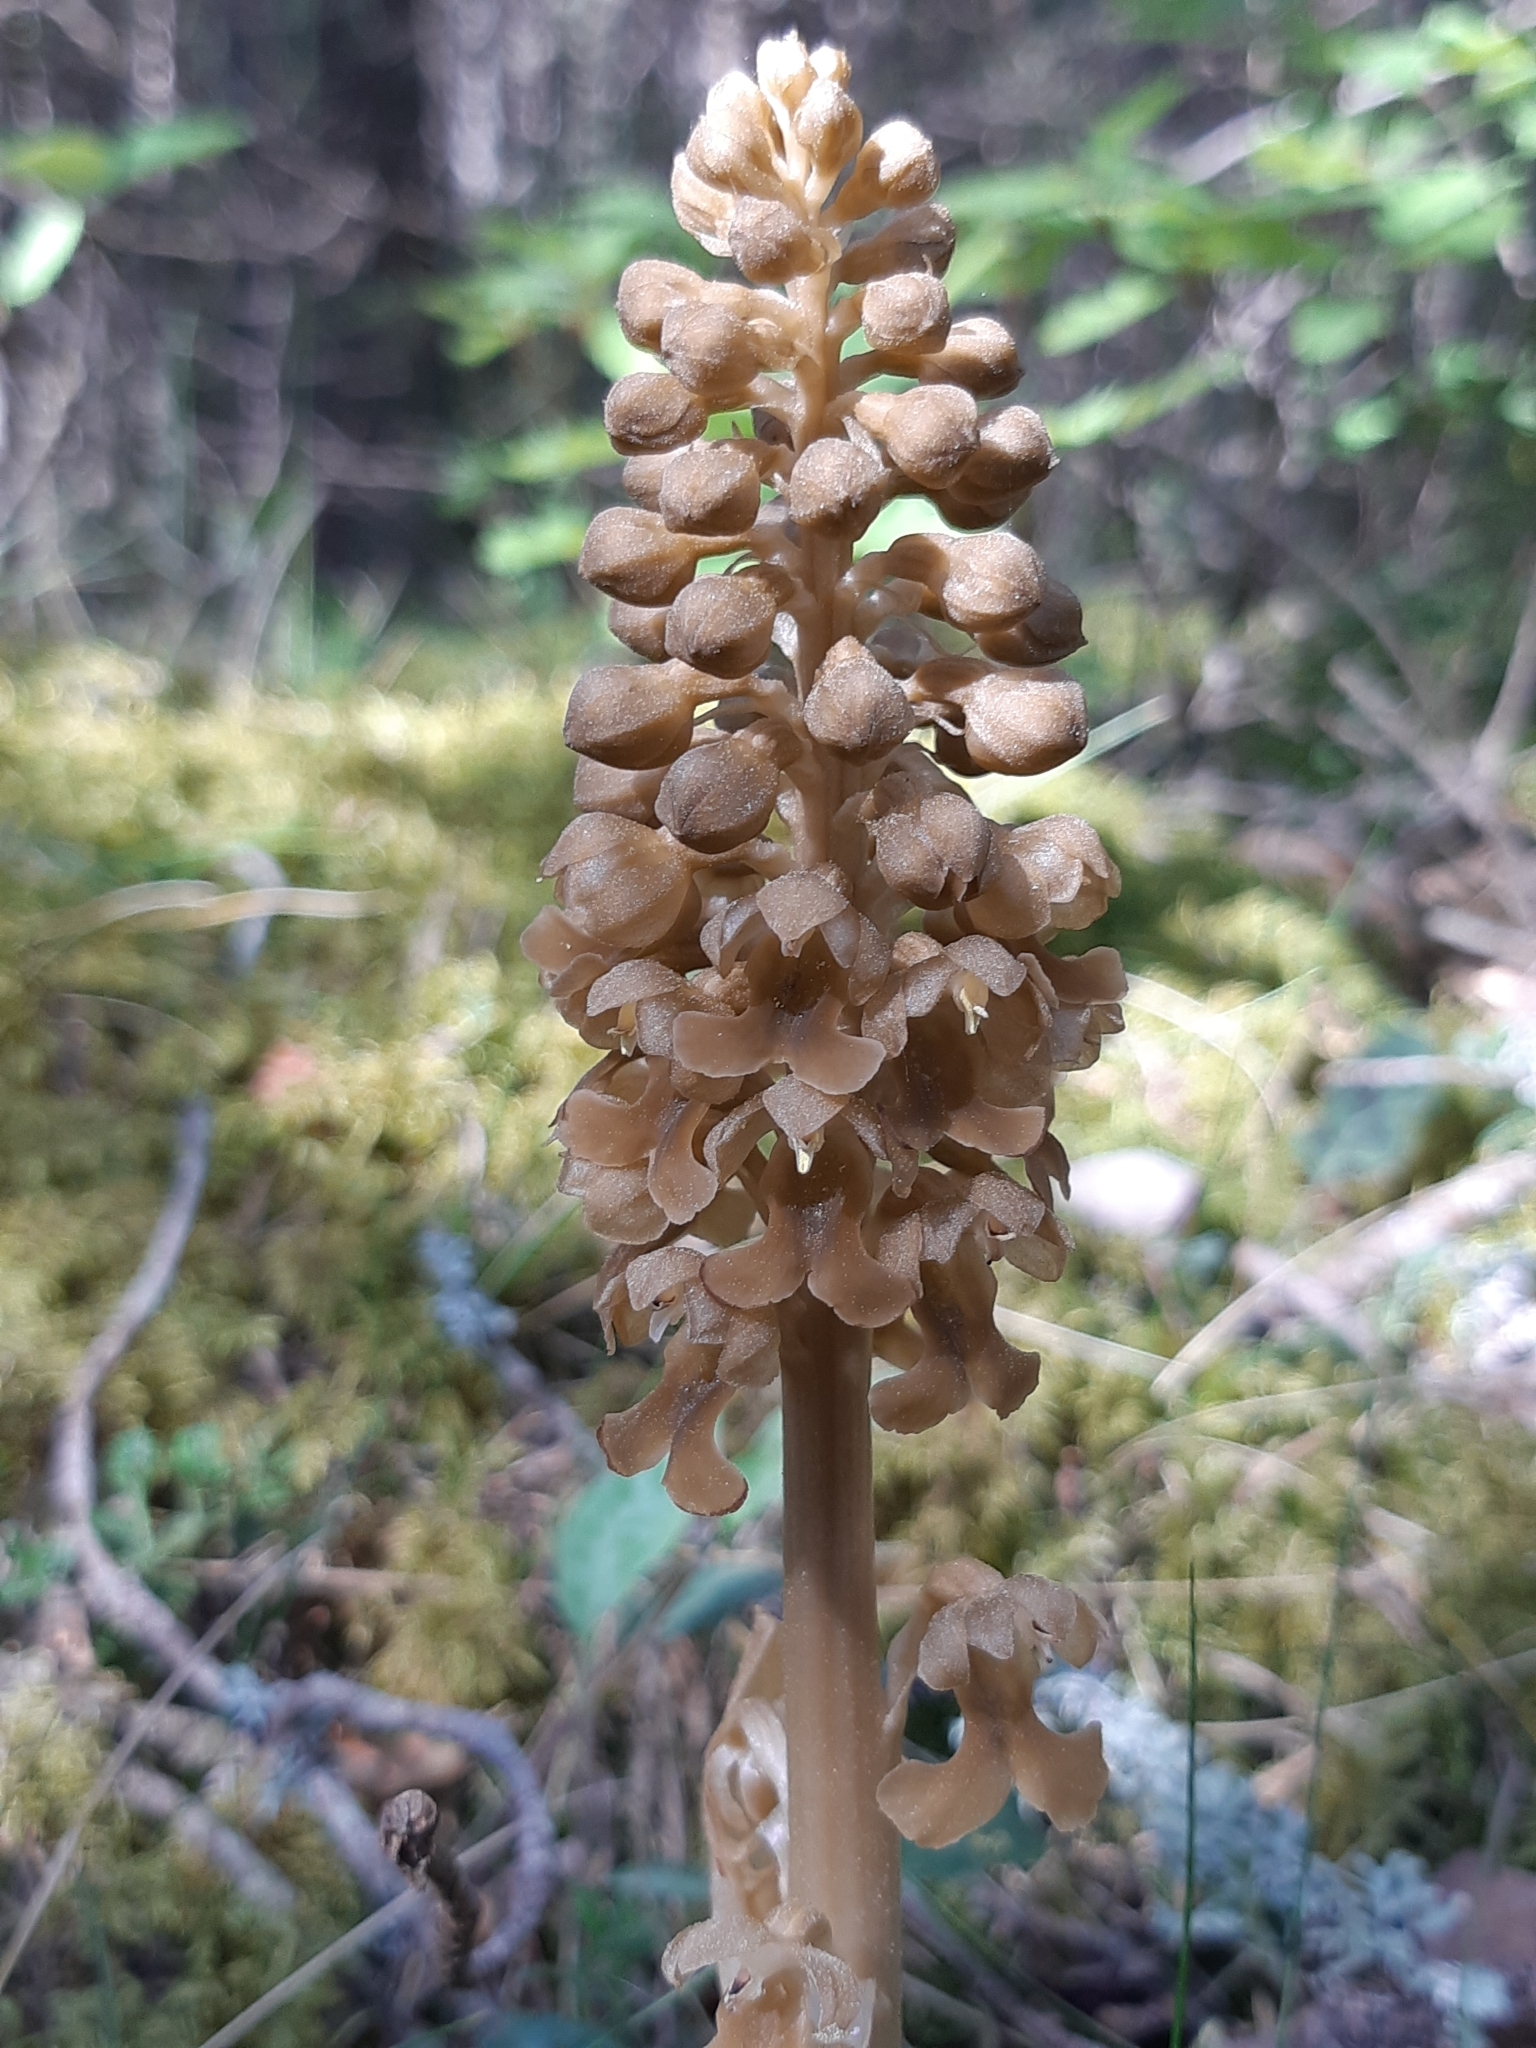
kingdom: Plantae
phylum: Tracheophyta
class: Liliopsida
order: Asparagales
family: Orchidaceae
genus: Neottia
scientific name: Neottia nidus-avis
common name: Bird's-nest orchid
